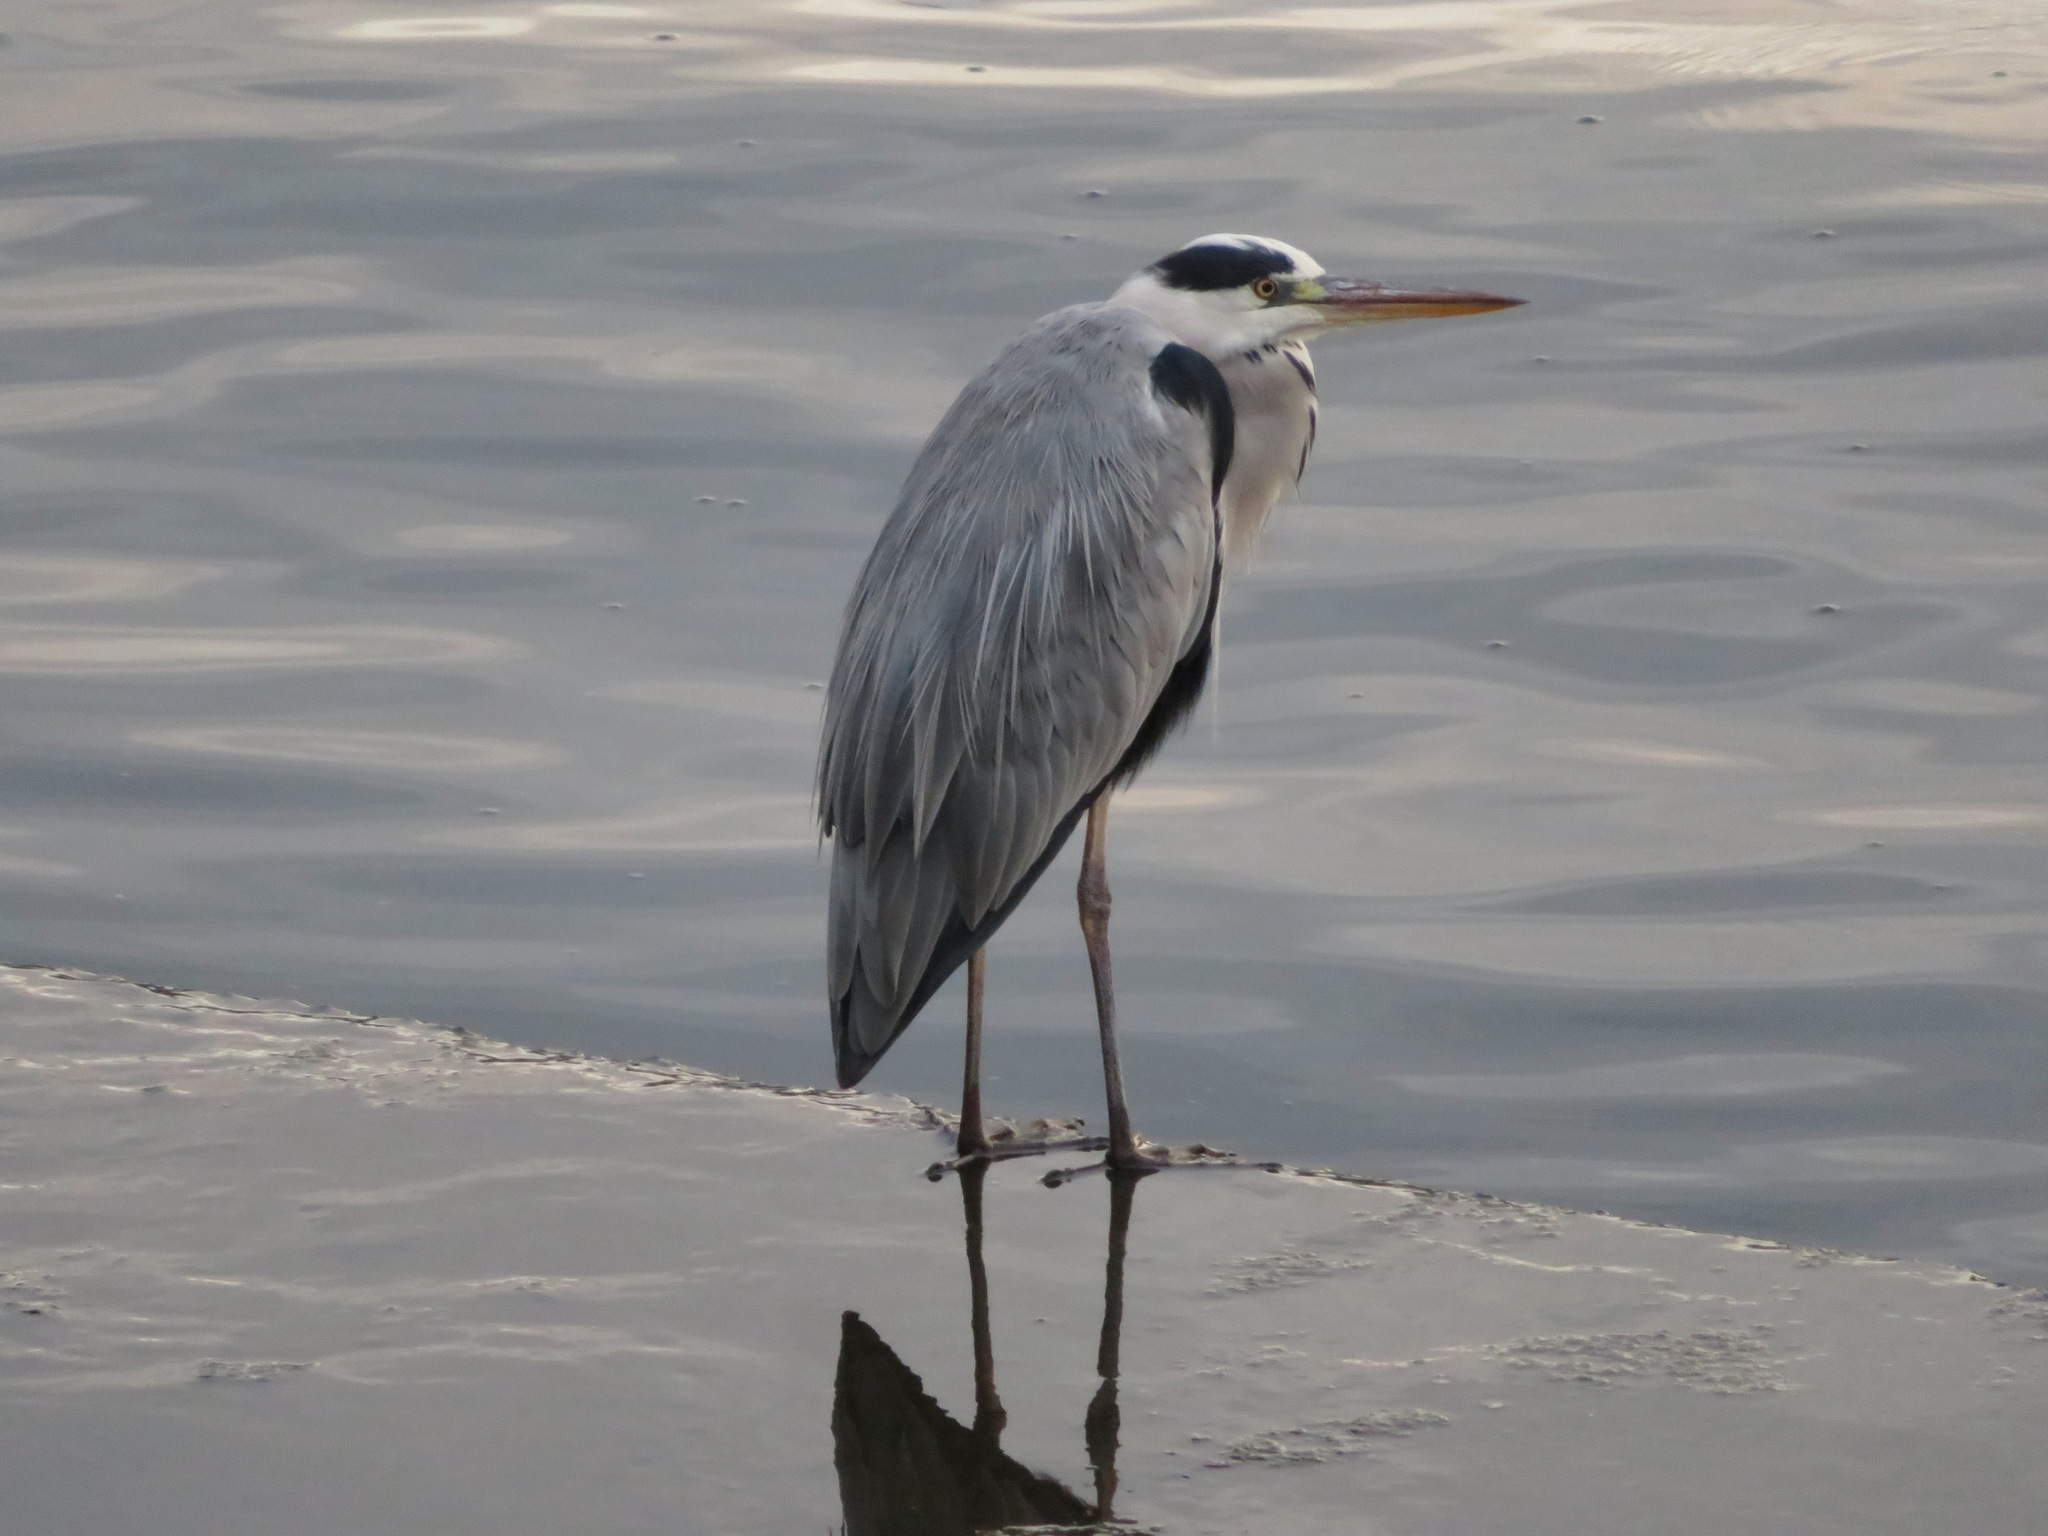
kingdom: Animalia
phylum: Chordata
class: Aves
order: Pelecaniformes
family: Ardeidae
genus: Ardea
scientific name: Ardea cinerea
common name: Grey heron
